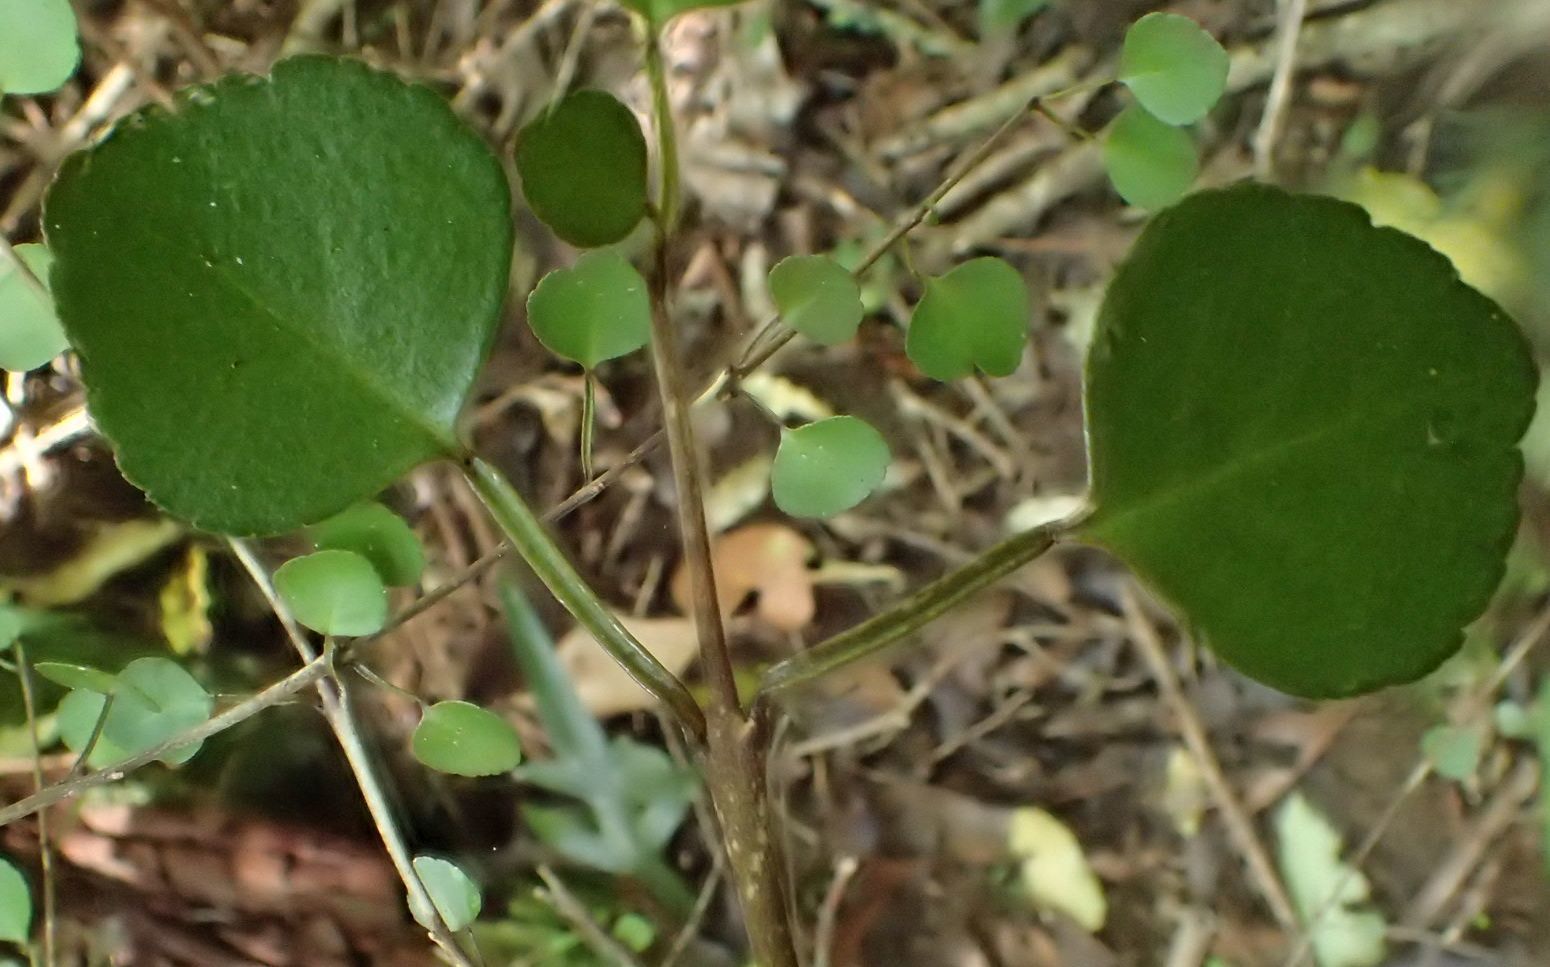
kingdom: Plantae
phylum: Tracheophyta
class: Magnoliopsida
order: Sapindales
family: Rutaceae
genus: Melicope
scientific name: Melicope simplex
